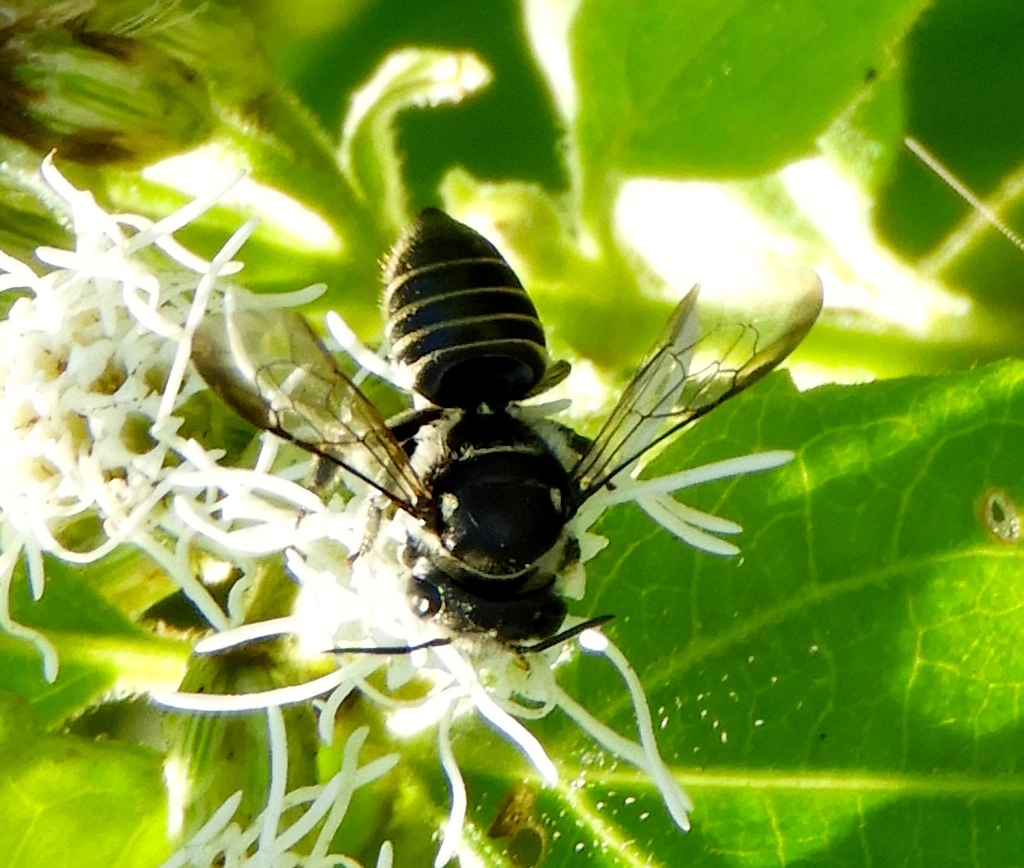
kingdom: Animalia
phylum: Arthropoda
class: Insecta
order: Hymenoptera
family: Megachilidae
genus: Megachile
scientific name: Megachile
